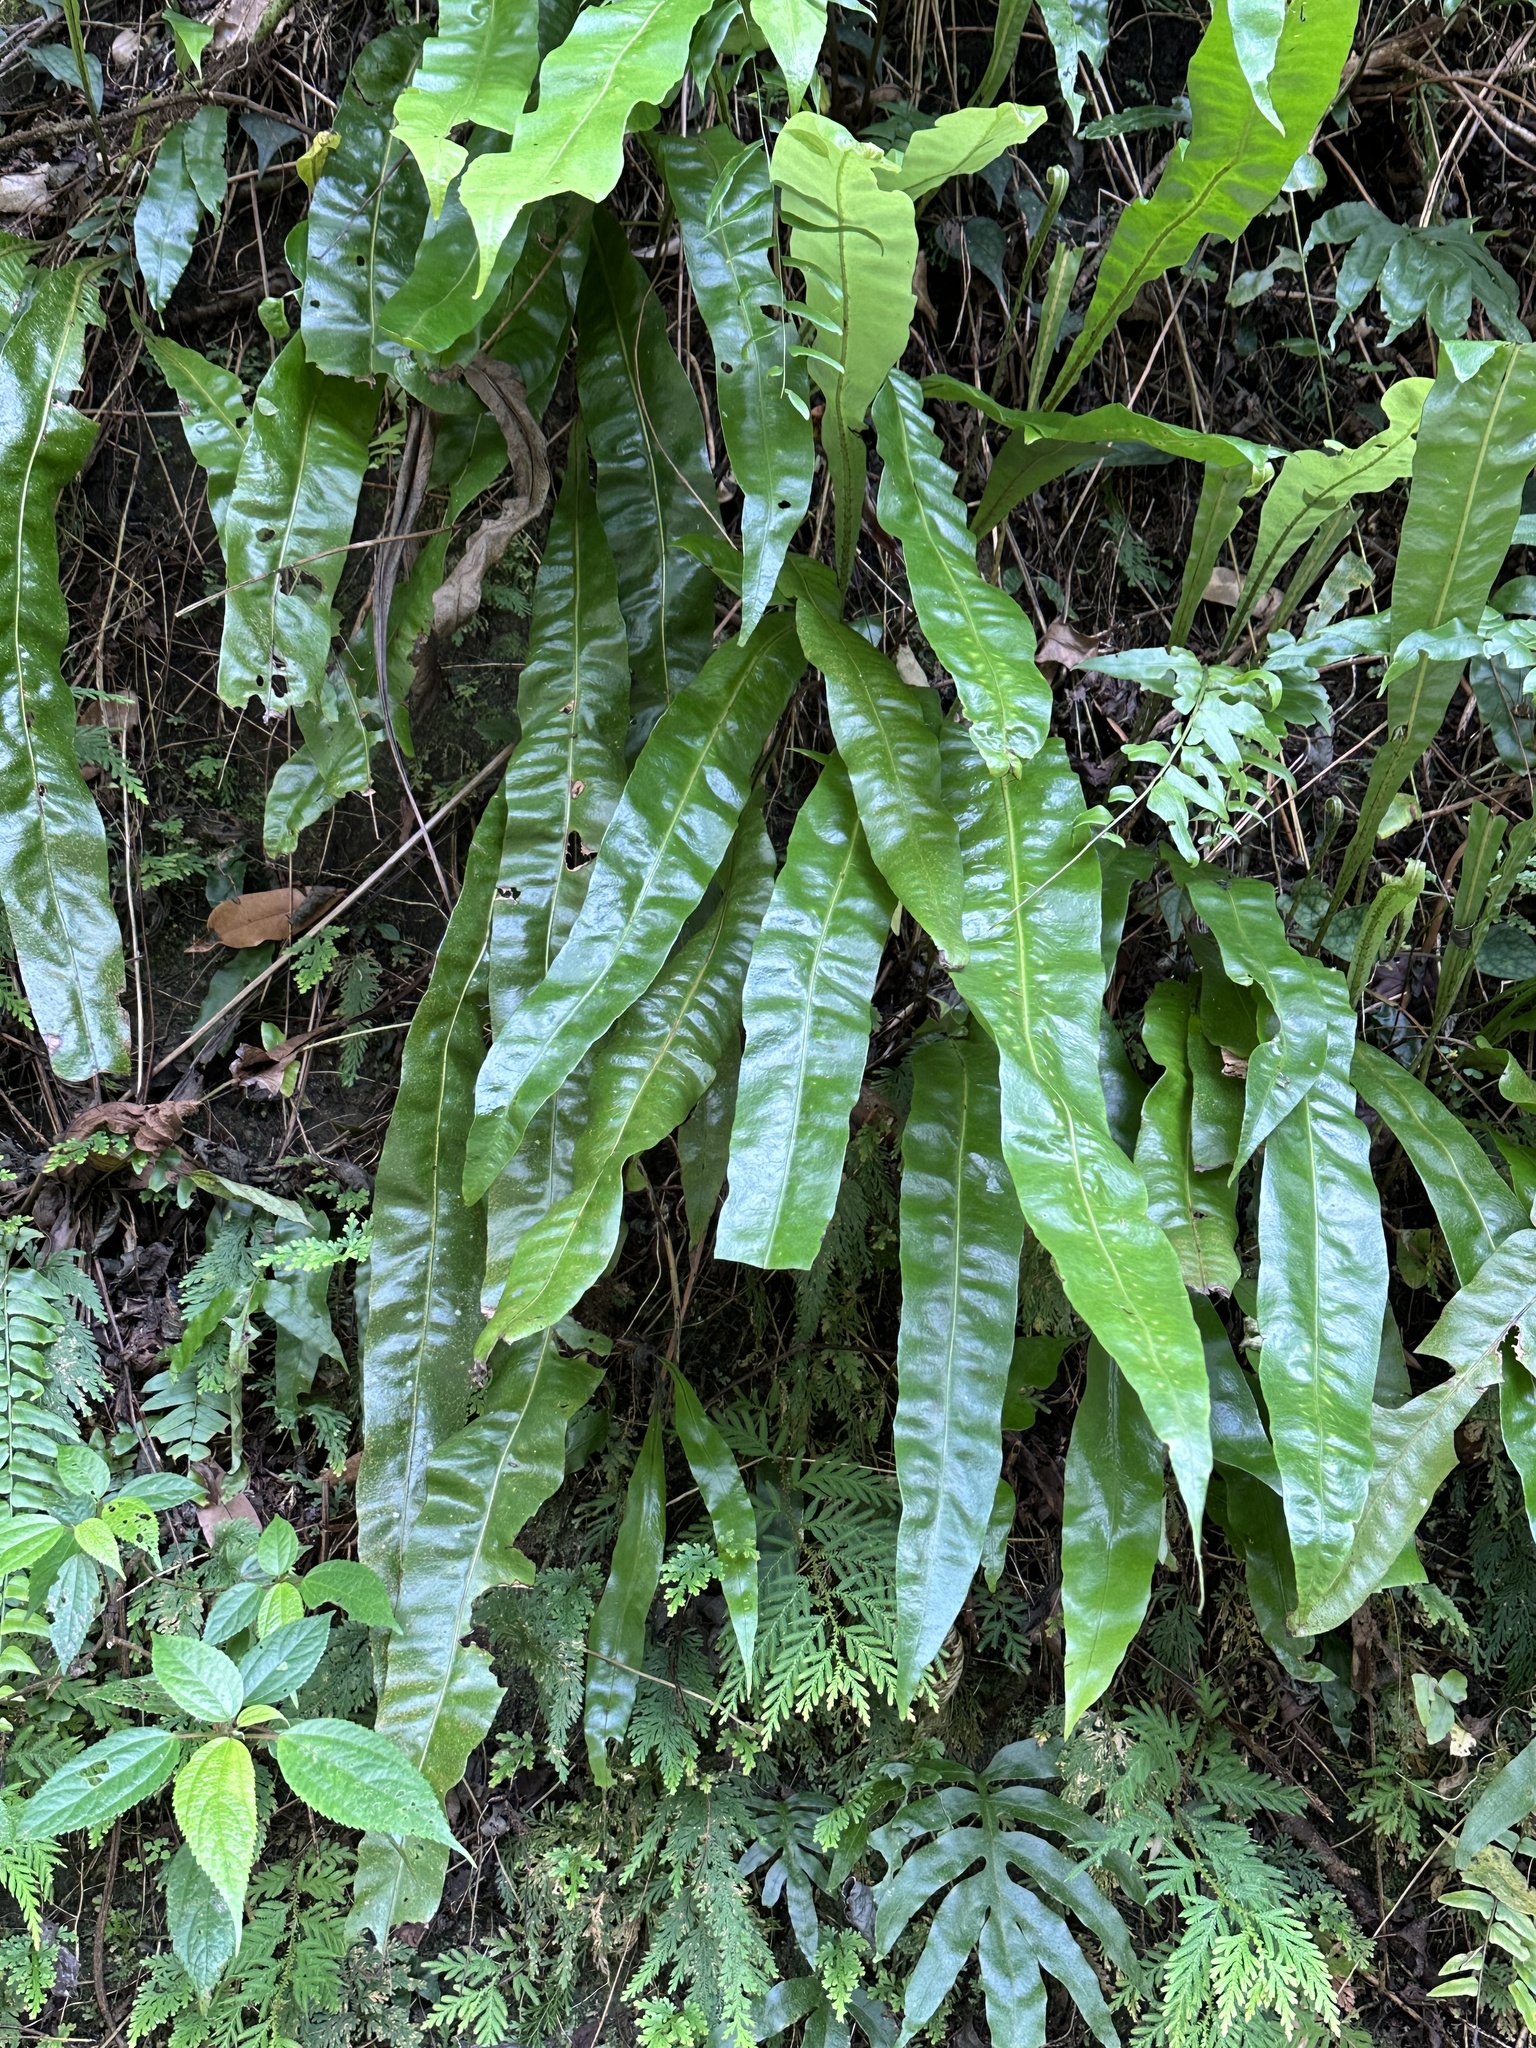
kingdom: Plantae
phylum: Tracheophyta
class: Polypodiopsida
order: Polypodiales
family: Polypodiaceae
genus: Lepisorus
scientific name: Lepisorus fortuni
